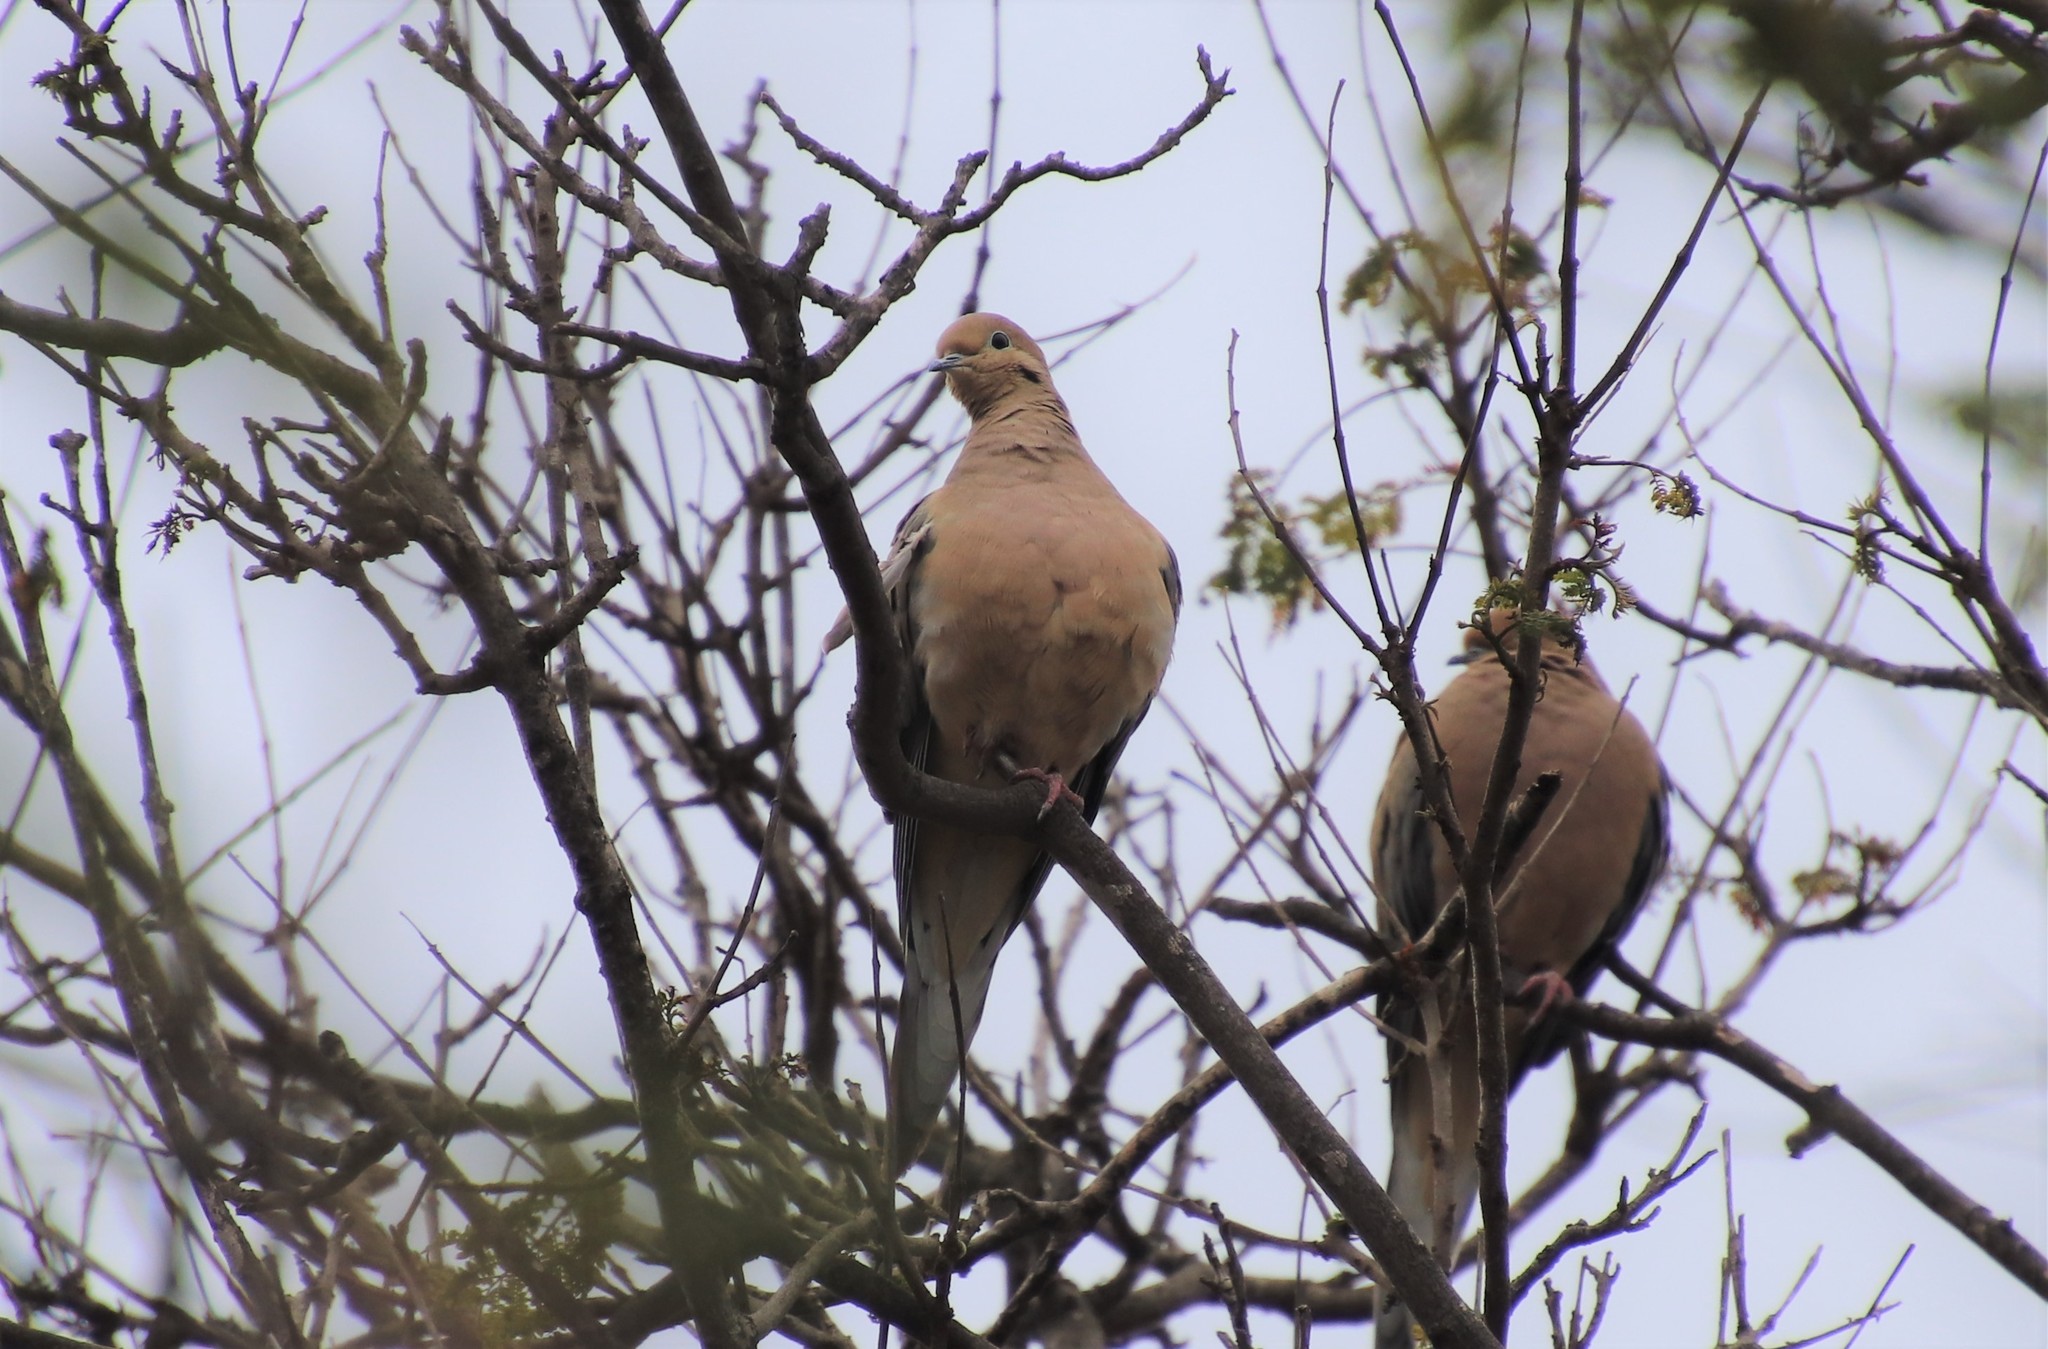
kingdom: Animalia
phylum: Chordata
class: Aves
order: Columbiformes
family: Columbidae
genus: Zenaida
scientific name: Zenaida macroura
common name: Mourning dove
